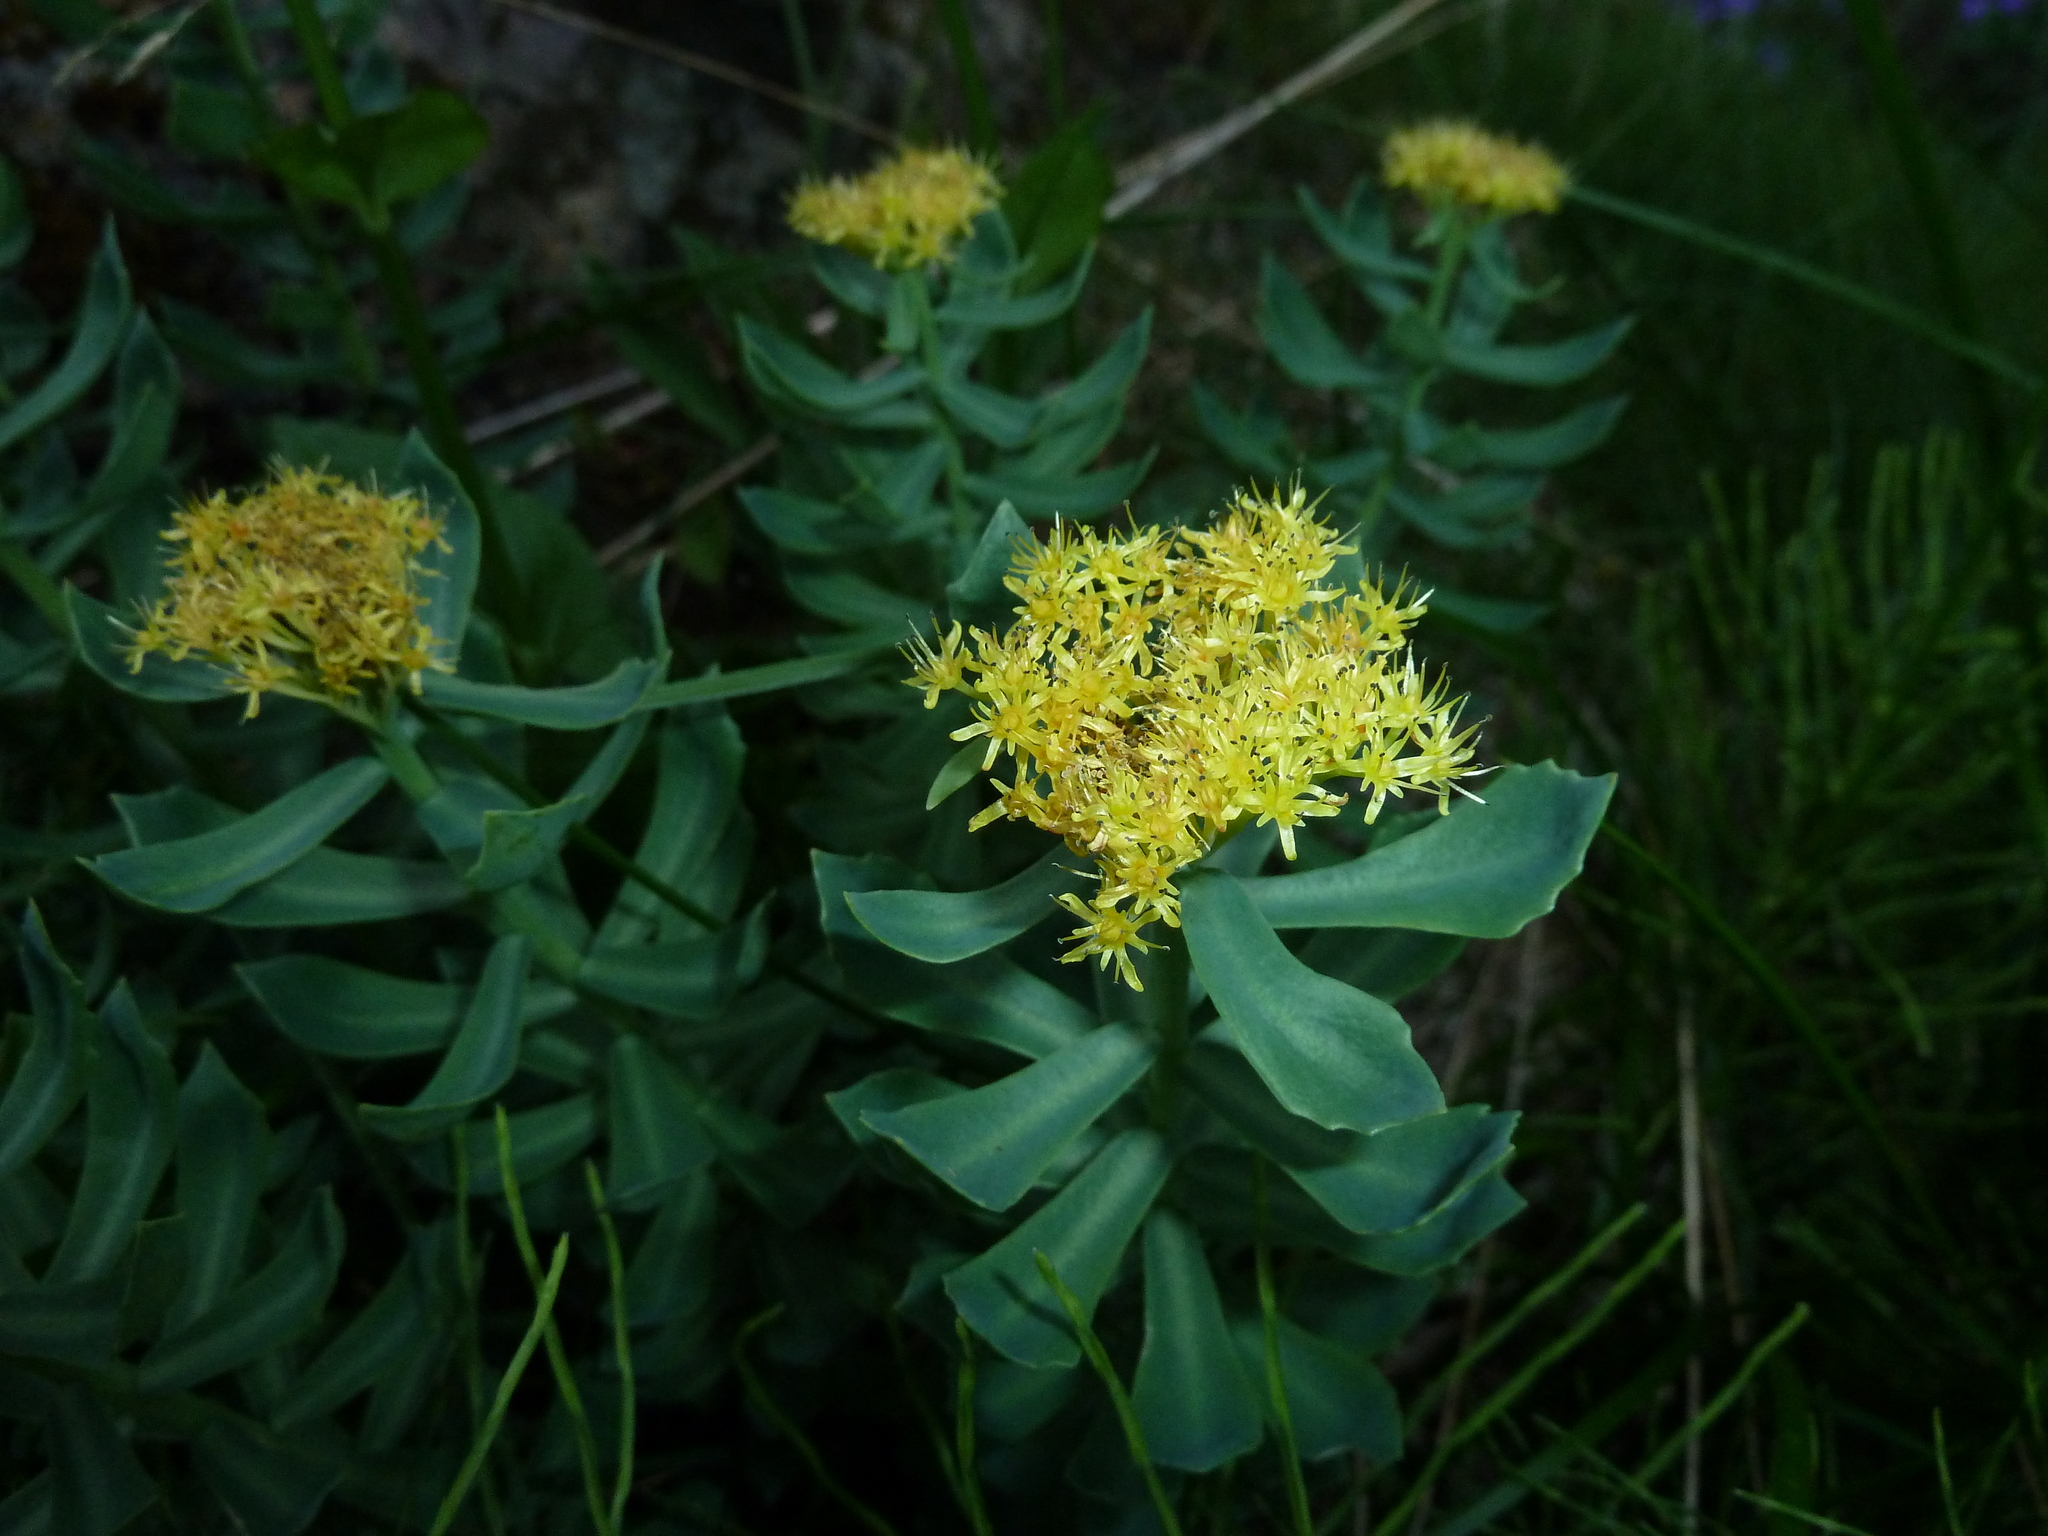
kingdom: Plantae
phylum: Tracheophyta
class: Magnoliopsida
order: Saxifragales
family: Crassulaceae
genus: Rhodiola
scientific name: Rhodiola rosea
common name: Roseroot
